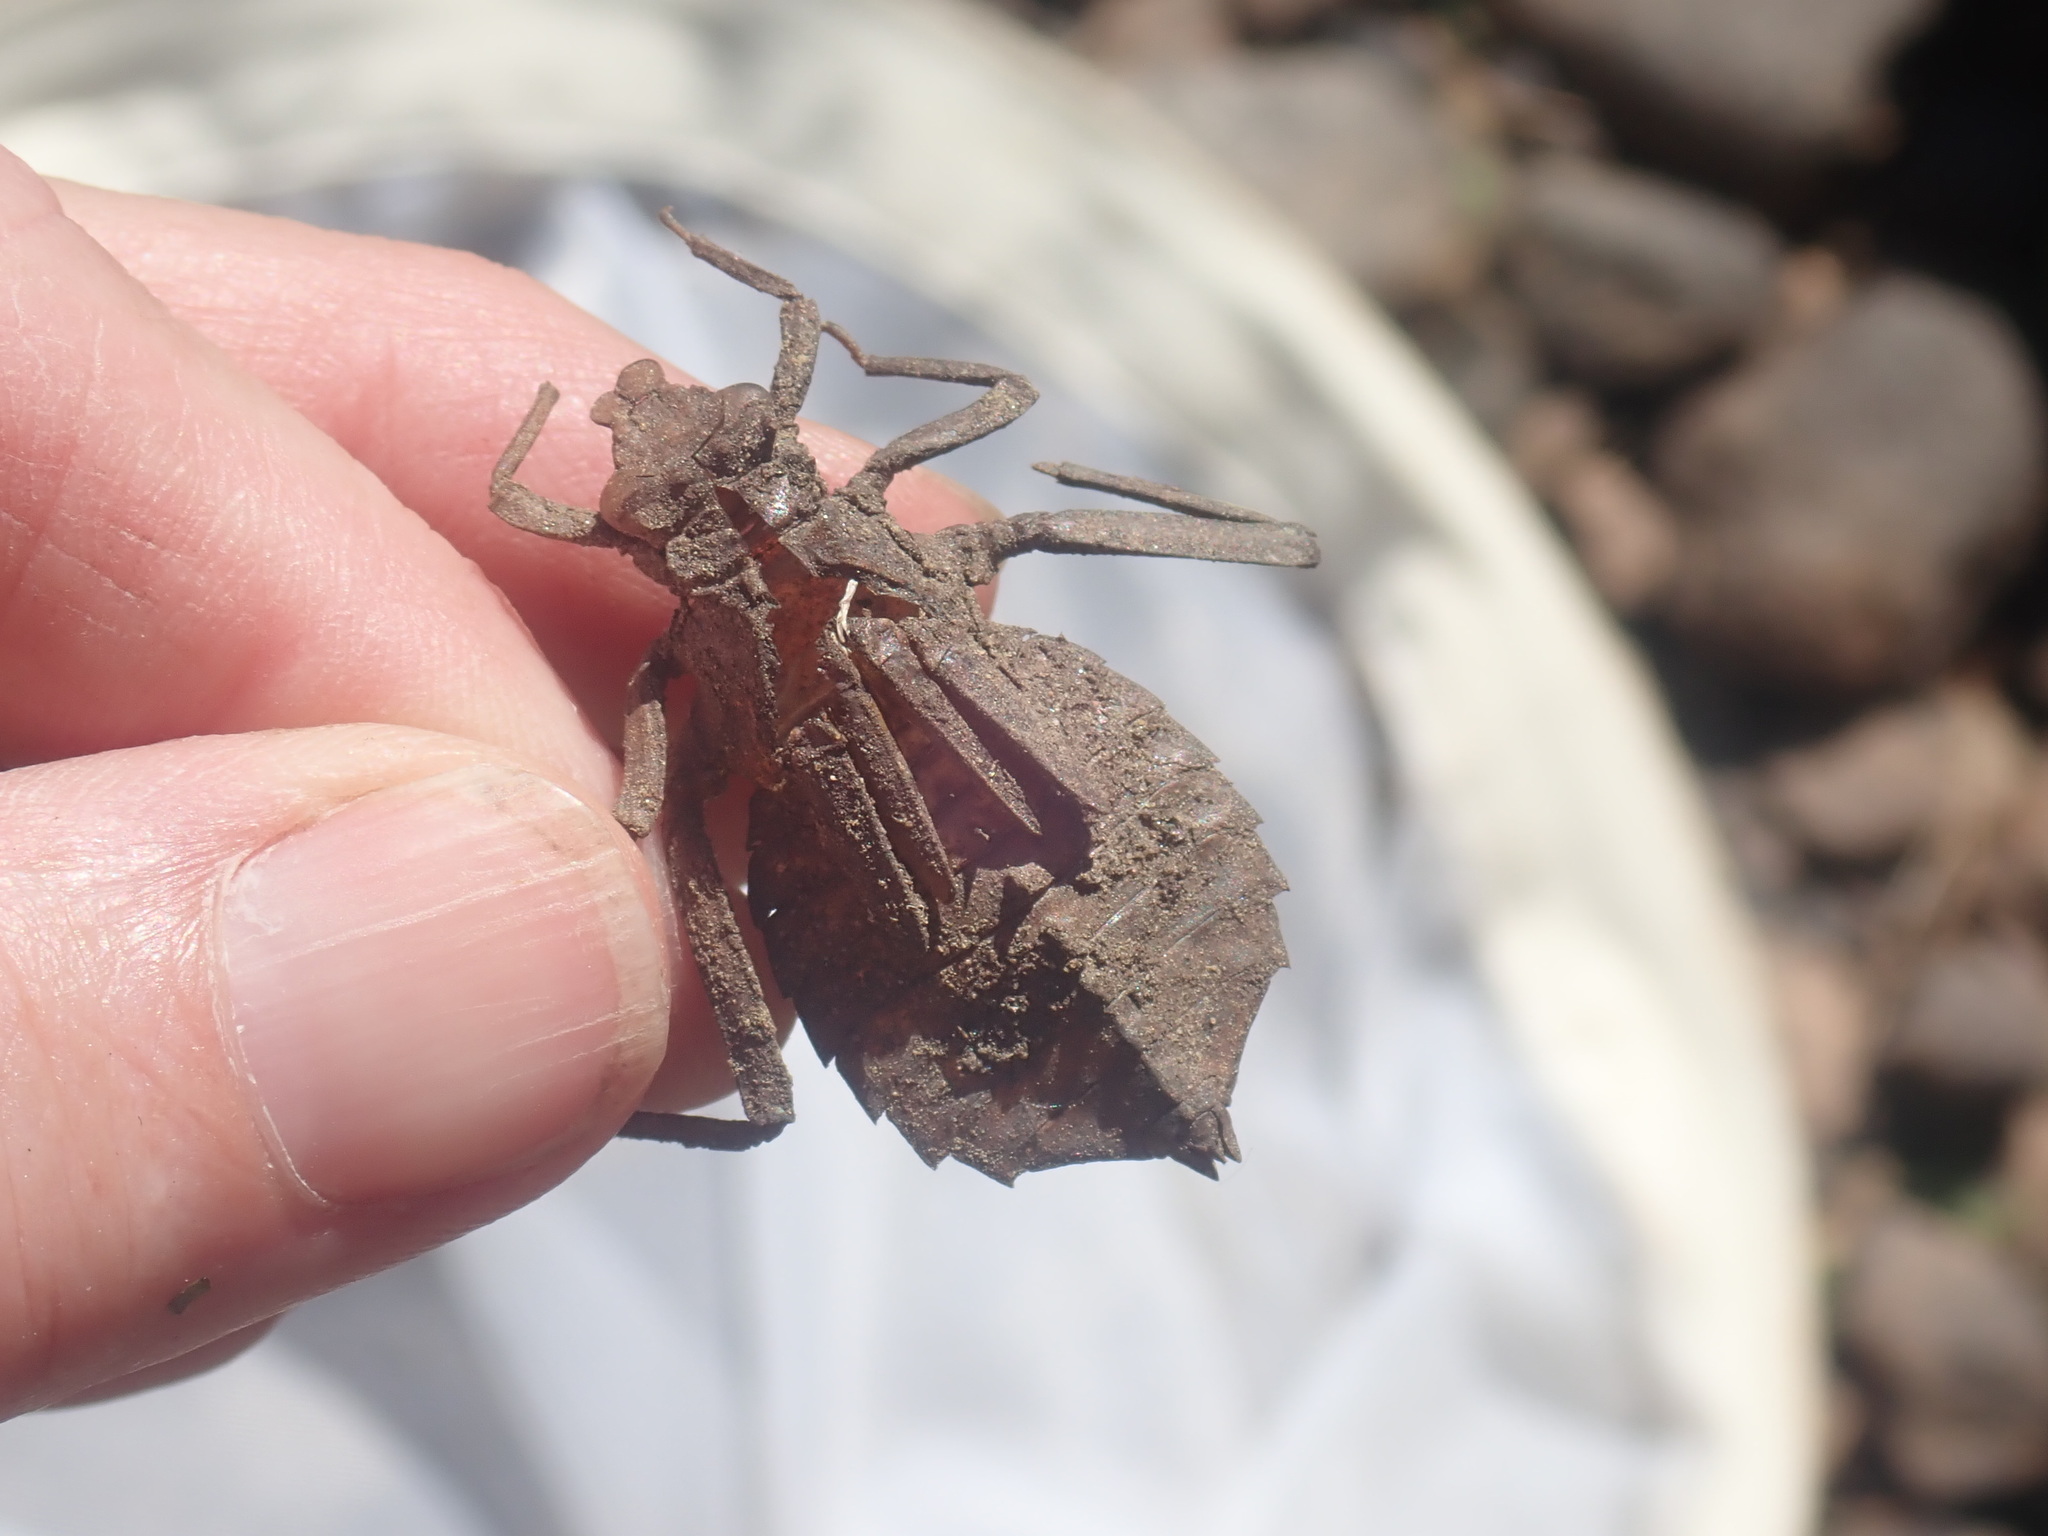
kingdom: Animalia
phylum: Arthropoda
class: Insecta
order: Odonata
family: Gomphidae
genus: Hagenius
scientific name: Hagenius brevistylus
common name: Dragonhunter
